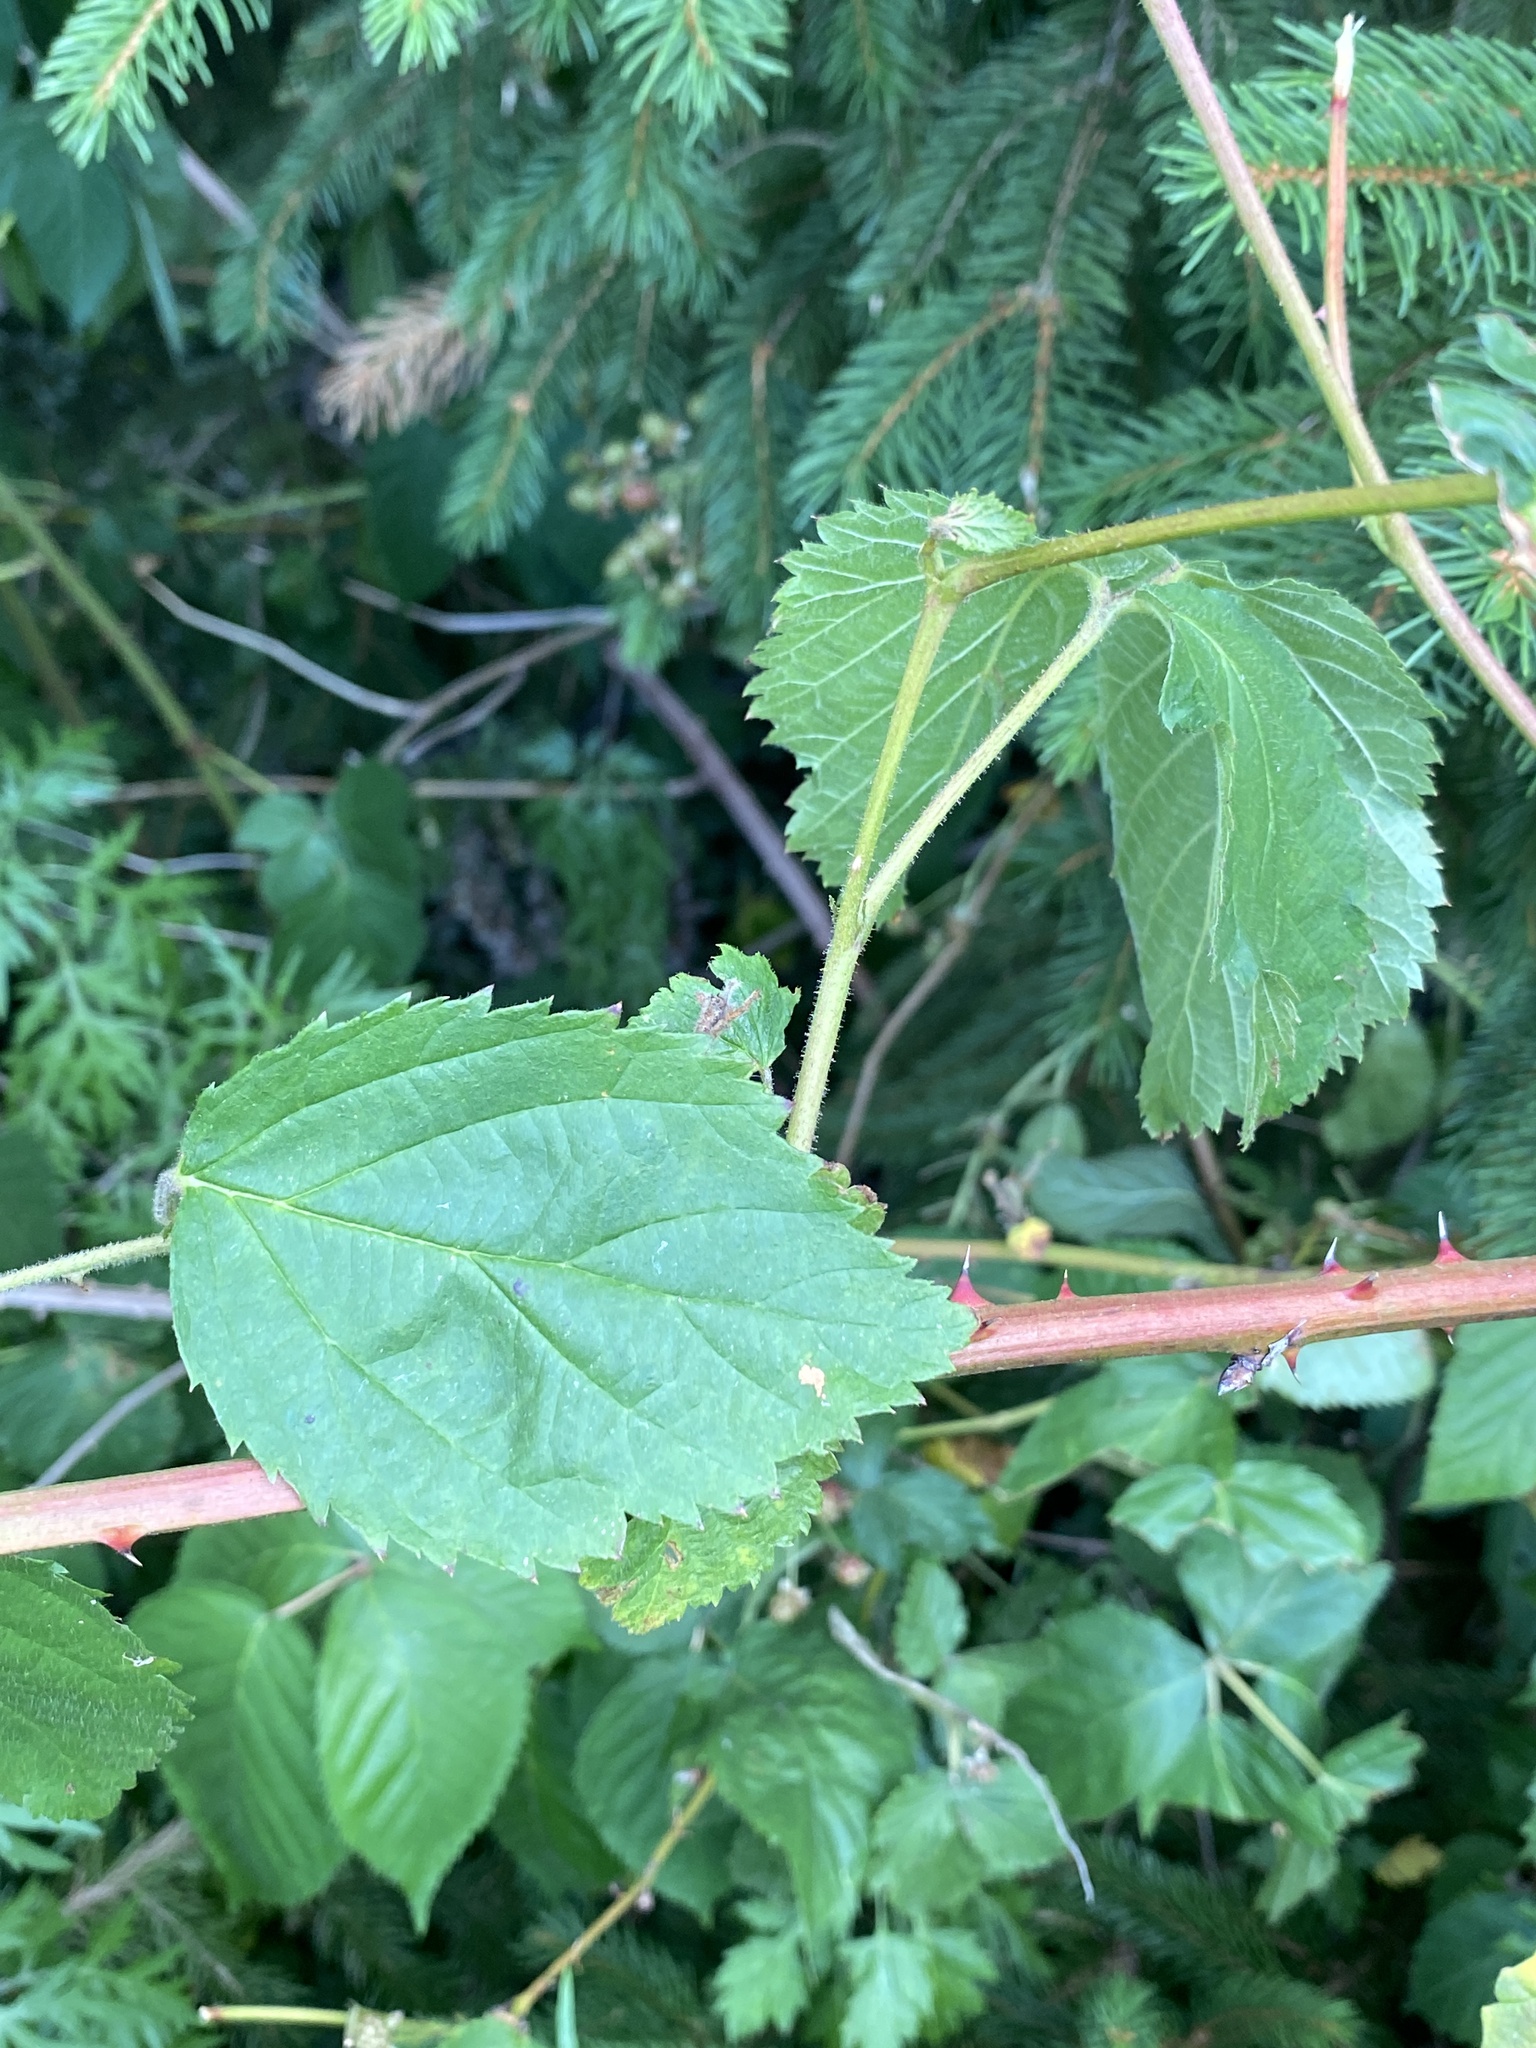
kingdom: Plantae
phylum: Tracheophyta
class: Magnoliopsida
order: Rosales
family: Rosaceae
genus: Rubus
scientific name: Rubus allegheniensis
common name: Allegheny blackberry
